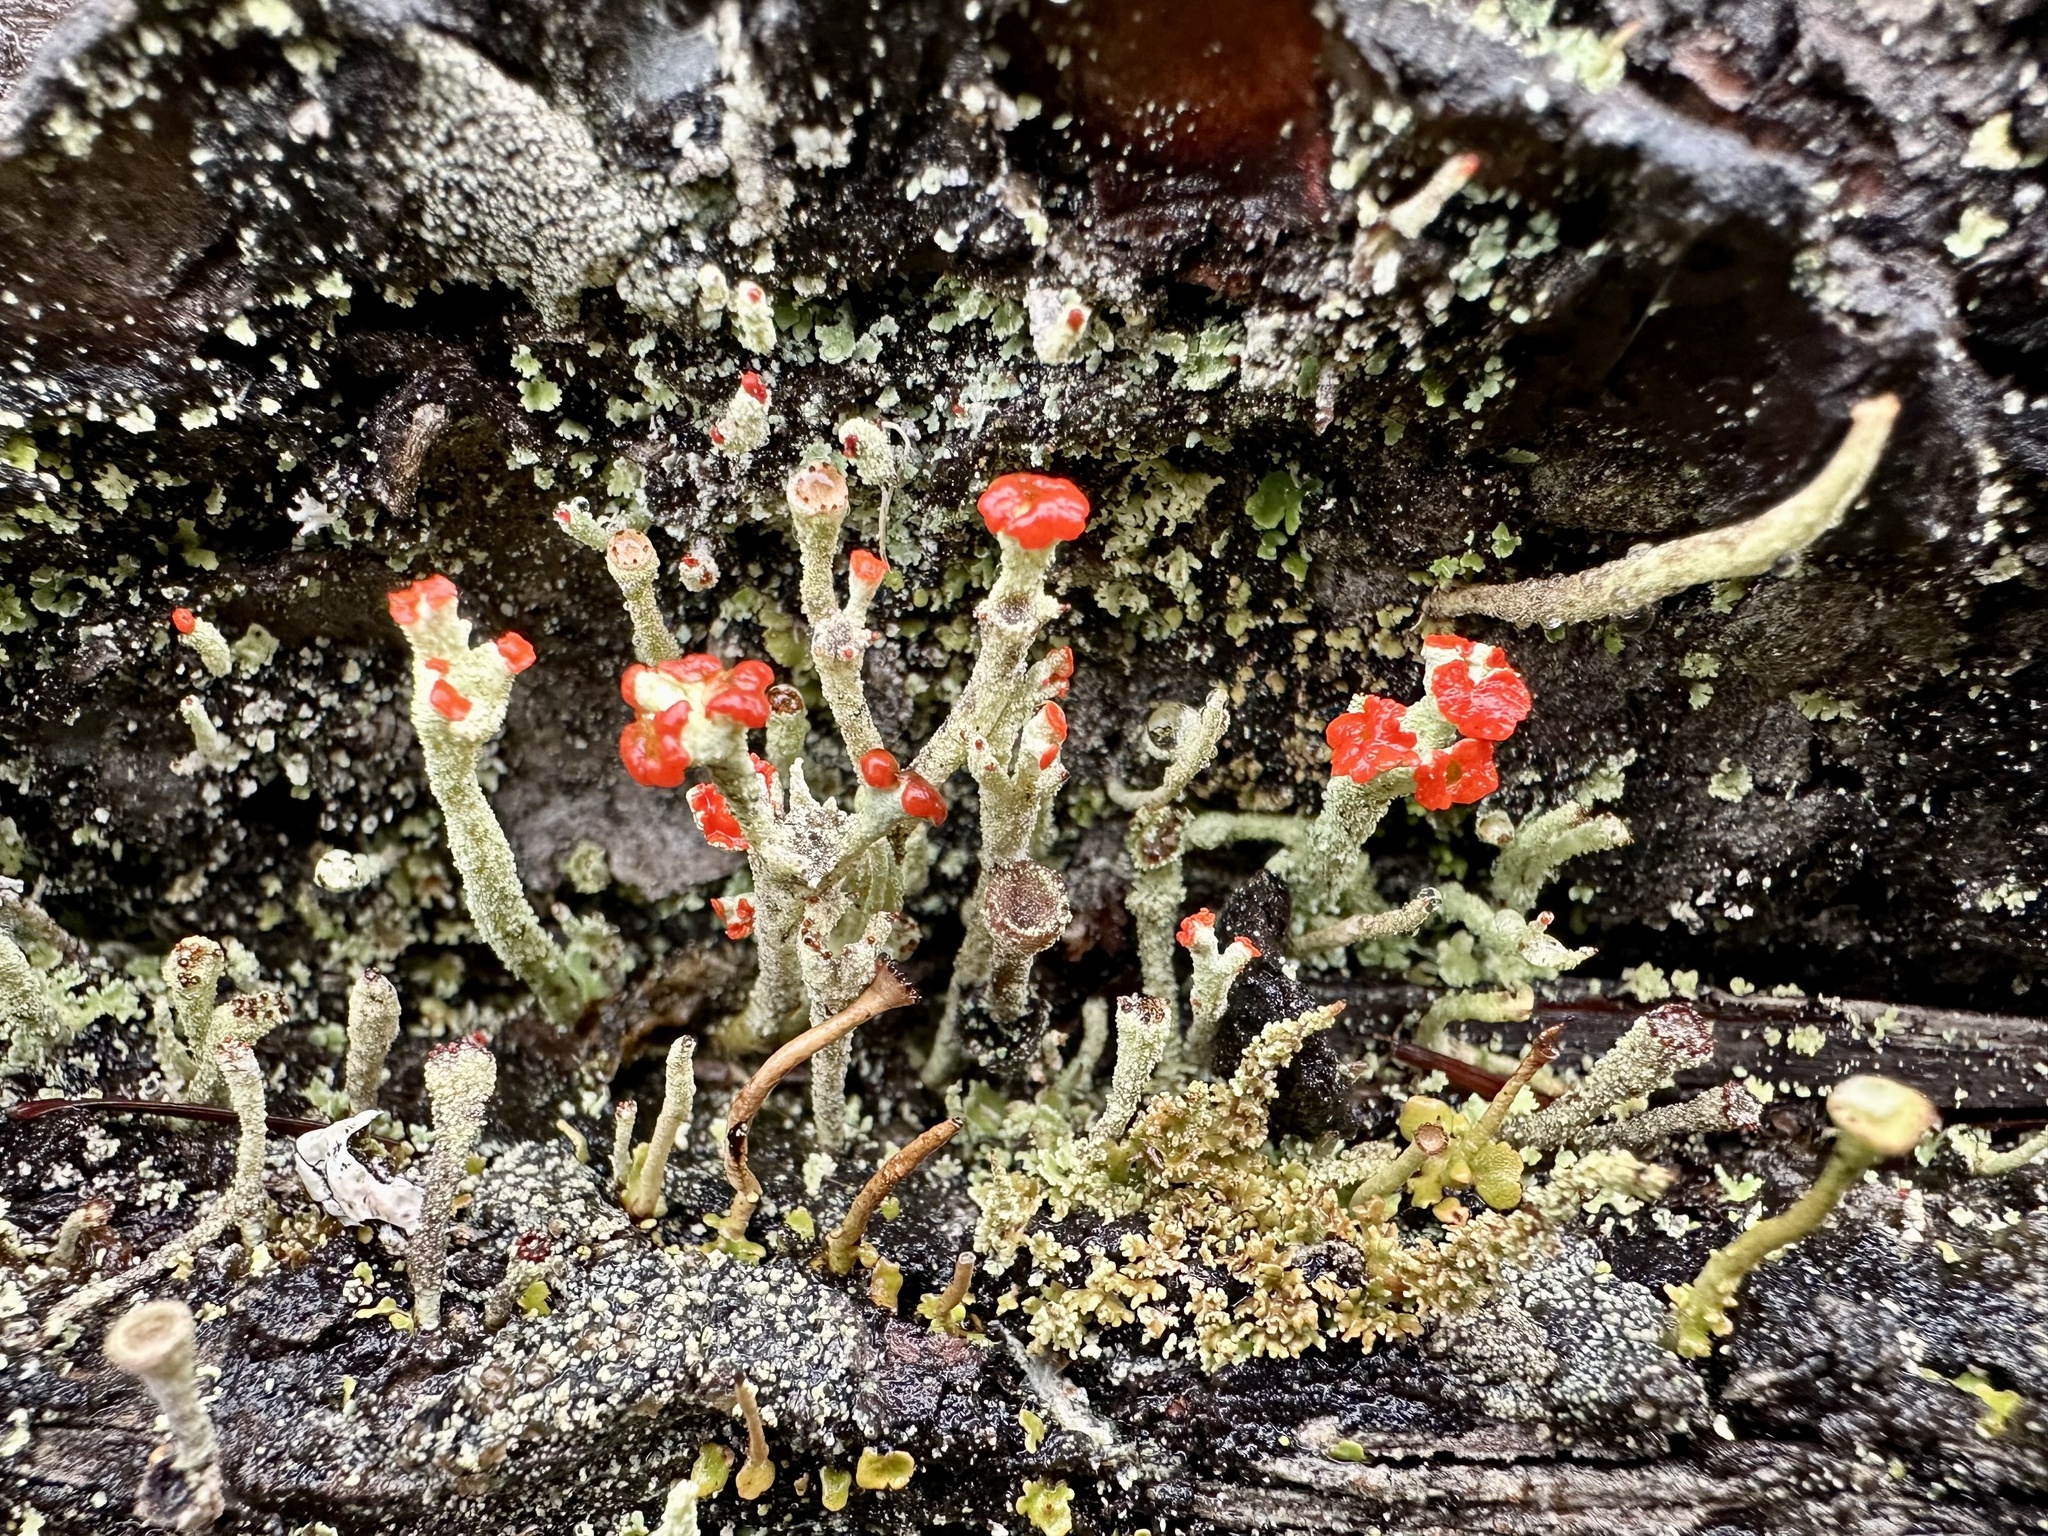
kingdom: Fungi
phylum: Ascomycota
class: Lecanoromycetes
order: Lecanorales
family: Cladoniaceae
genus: Cladonia
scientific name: Cladonia floerkeana
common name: Gritty british soldiers lichen
